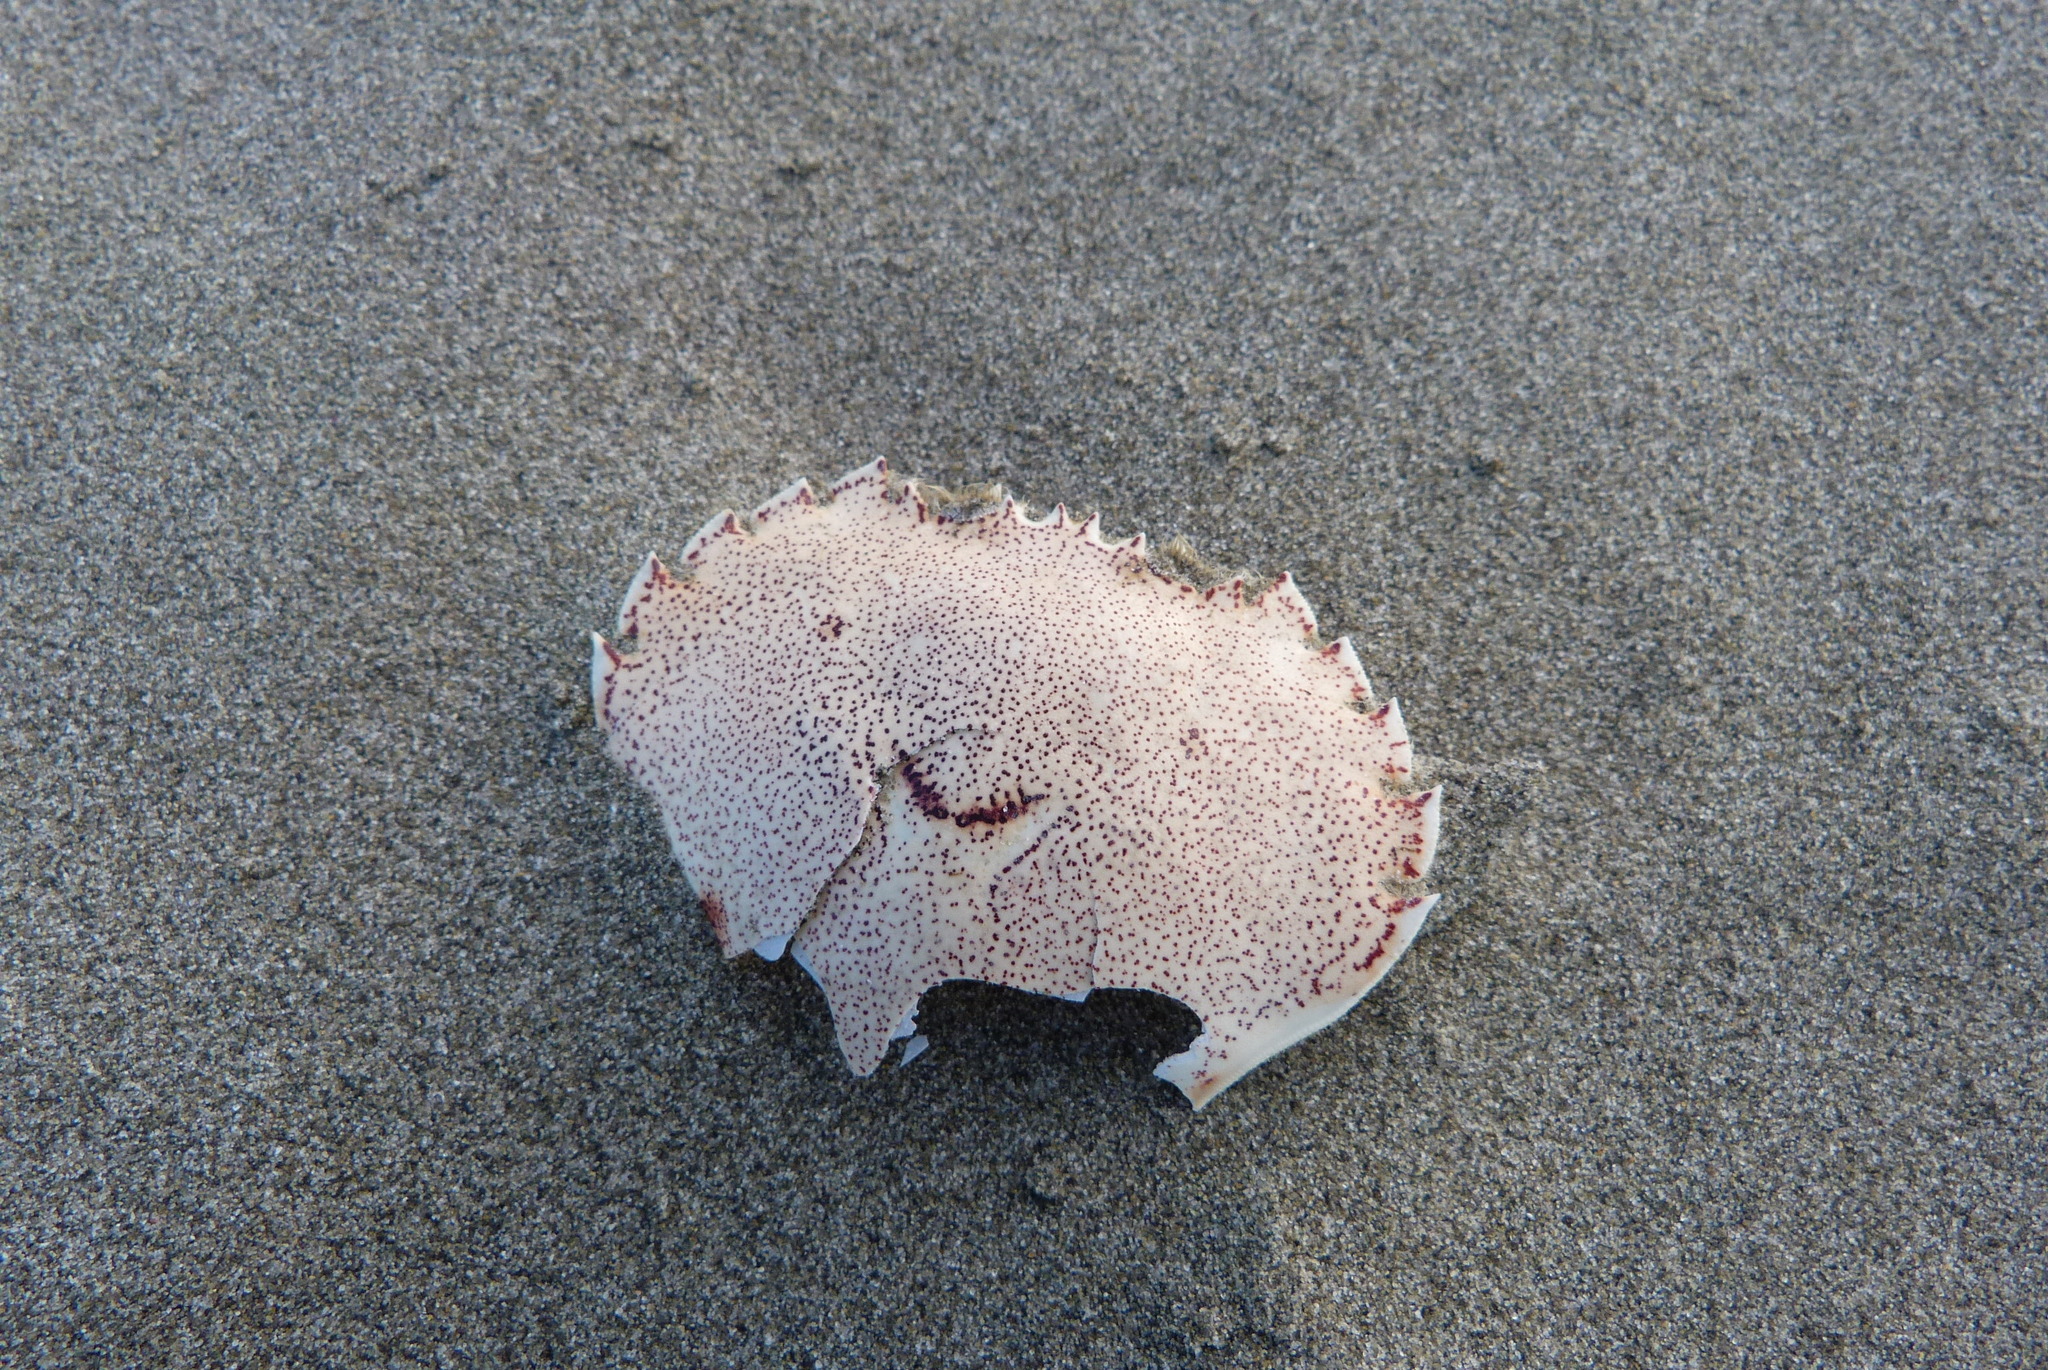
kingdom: Animalia
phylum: Arthropoda
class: Malacostraca
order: Decapoda
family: Ovalipidae
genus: Ovalipes
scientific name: Ovalipes catharus
